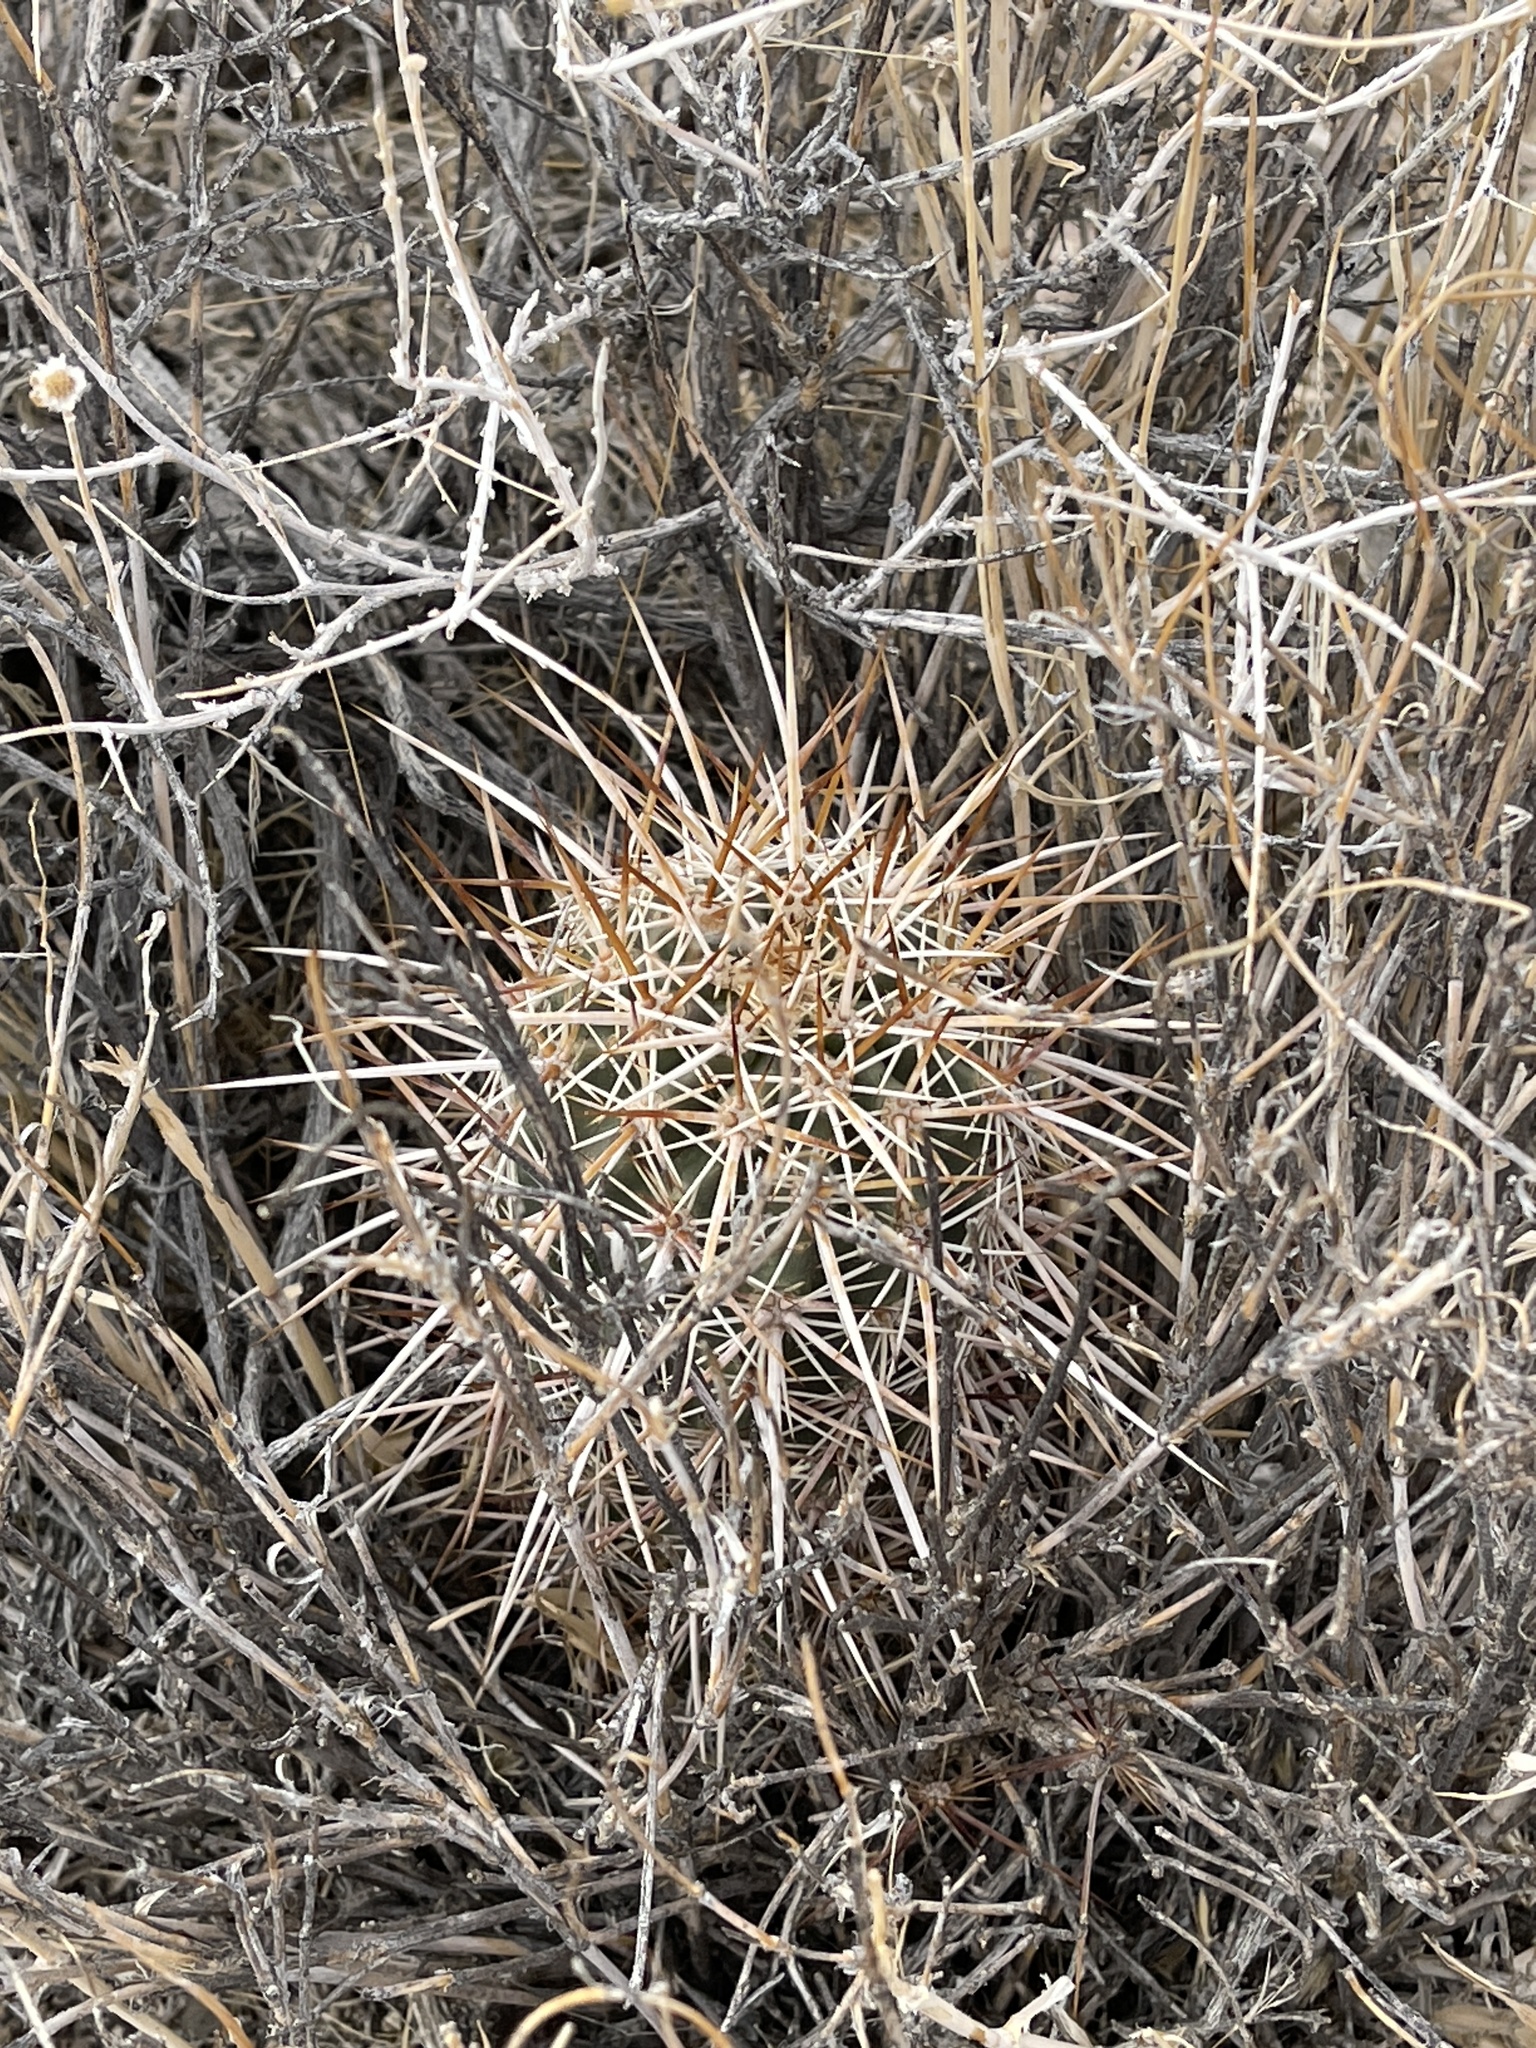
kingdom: Plantae
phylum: Tracheophyta
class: Magnoliopsida
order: Caryophyllales
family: Cactaceae
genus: Echinocereus
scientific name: Echinocereus engelmannii
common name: Engelmann's hedgehog cactus
